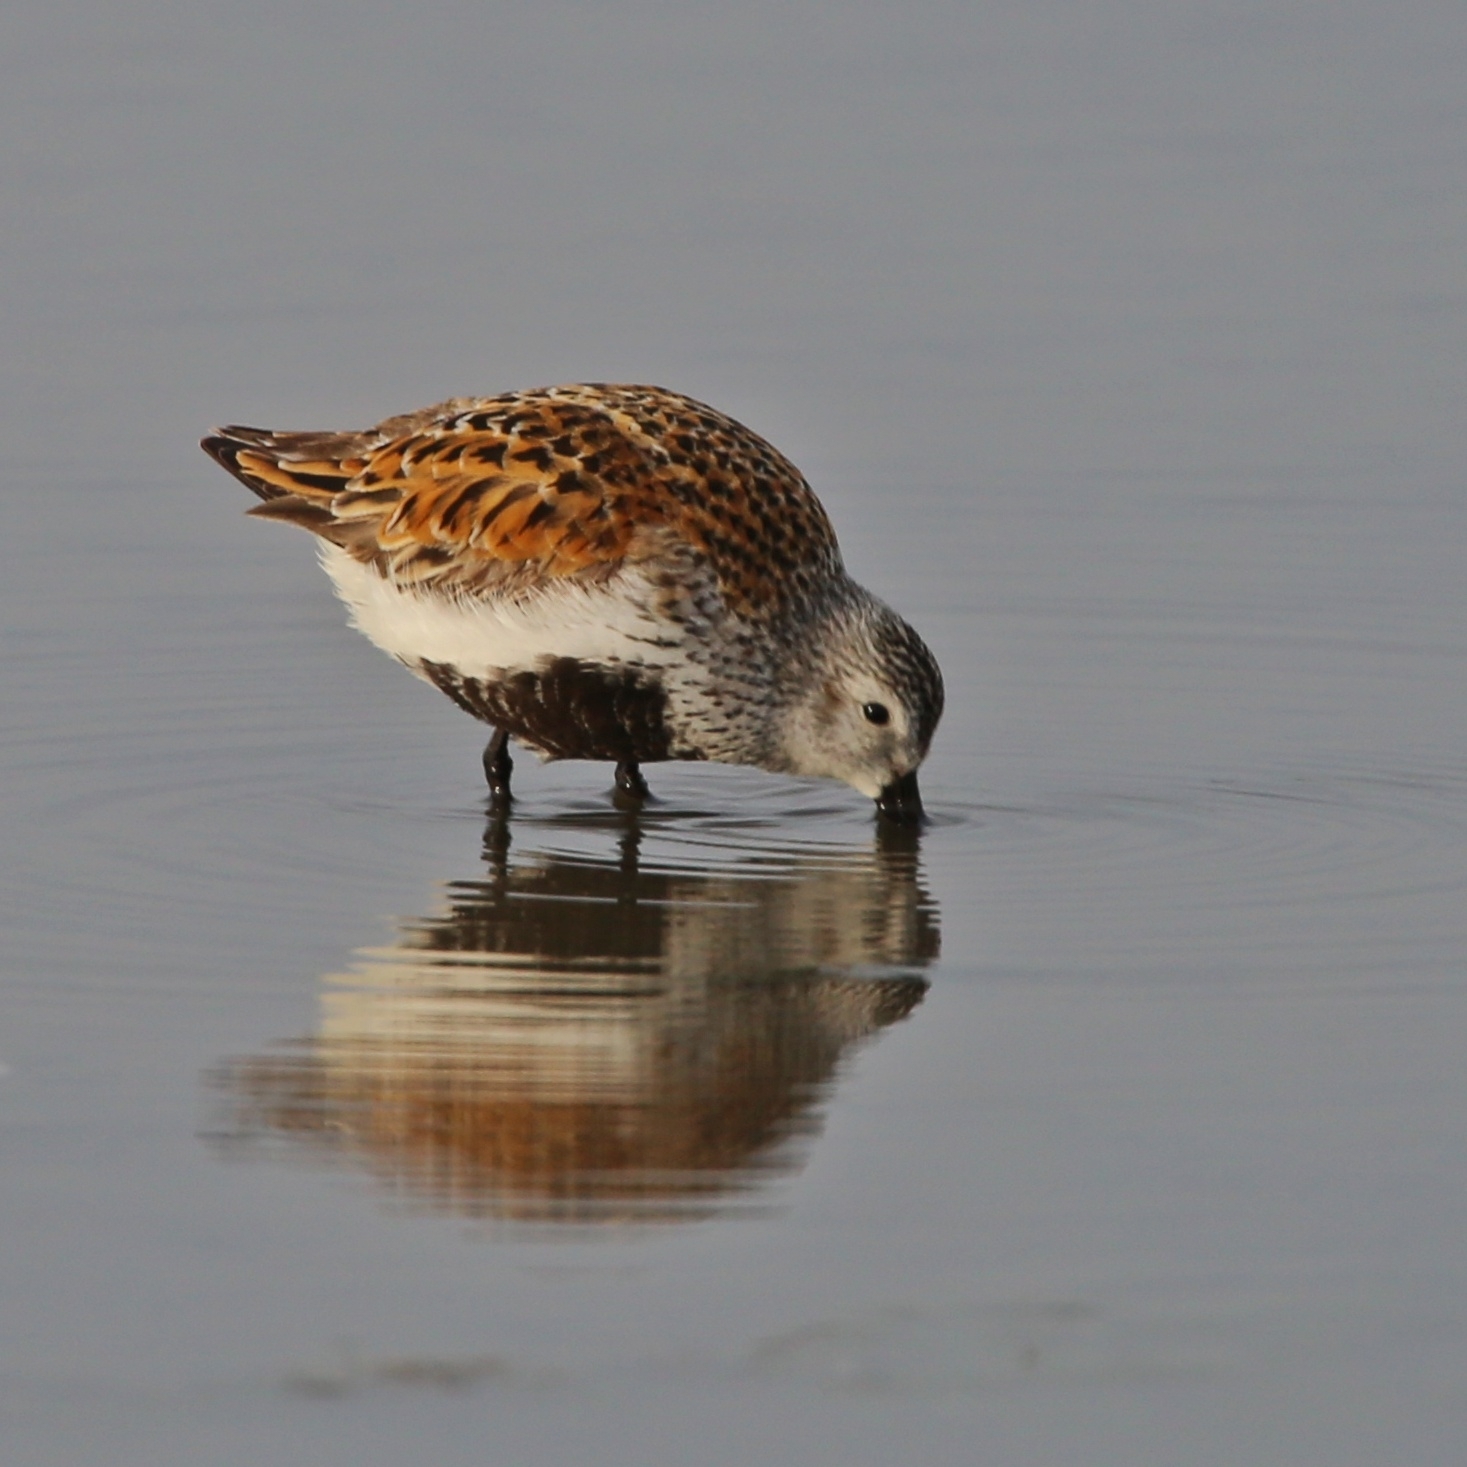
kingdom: Animalia
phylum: Chordata
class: Aves
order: Charadriiformes
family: Scolopacidae
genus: Calidris
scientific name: Calidris alpina
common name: Dunlin
